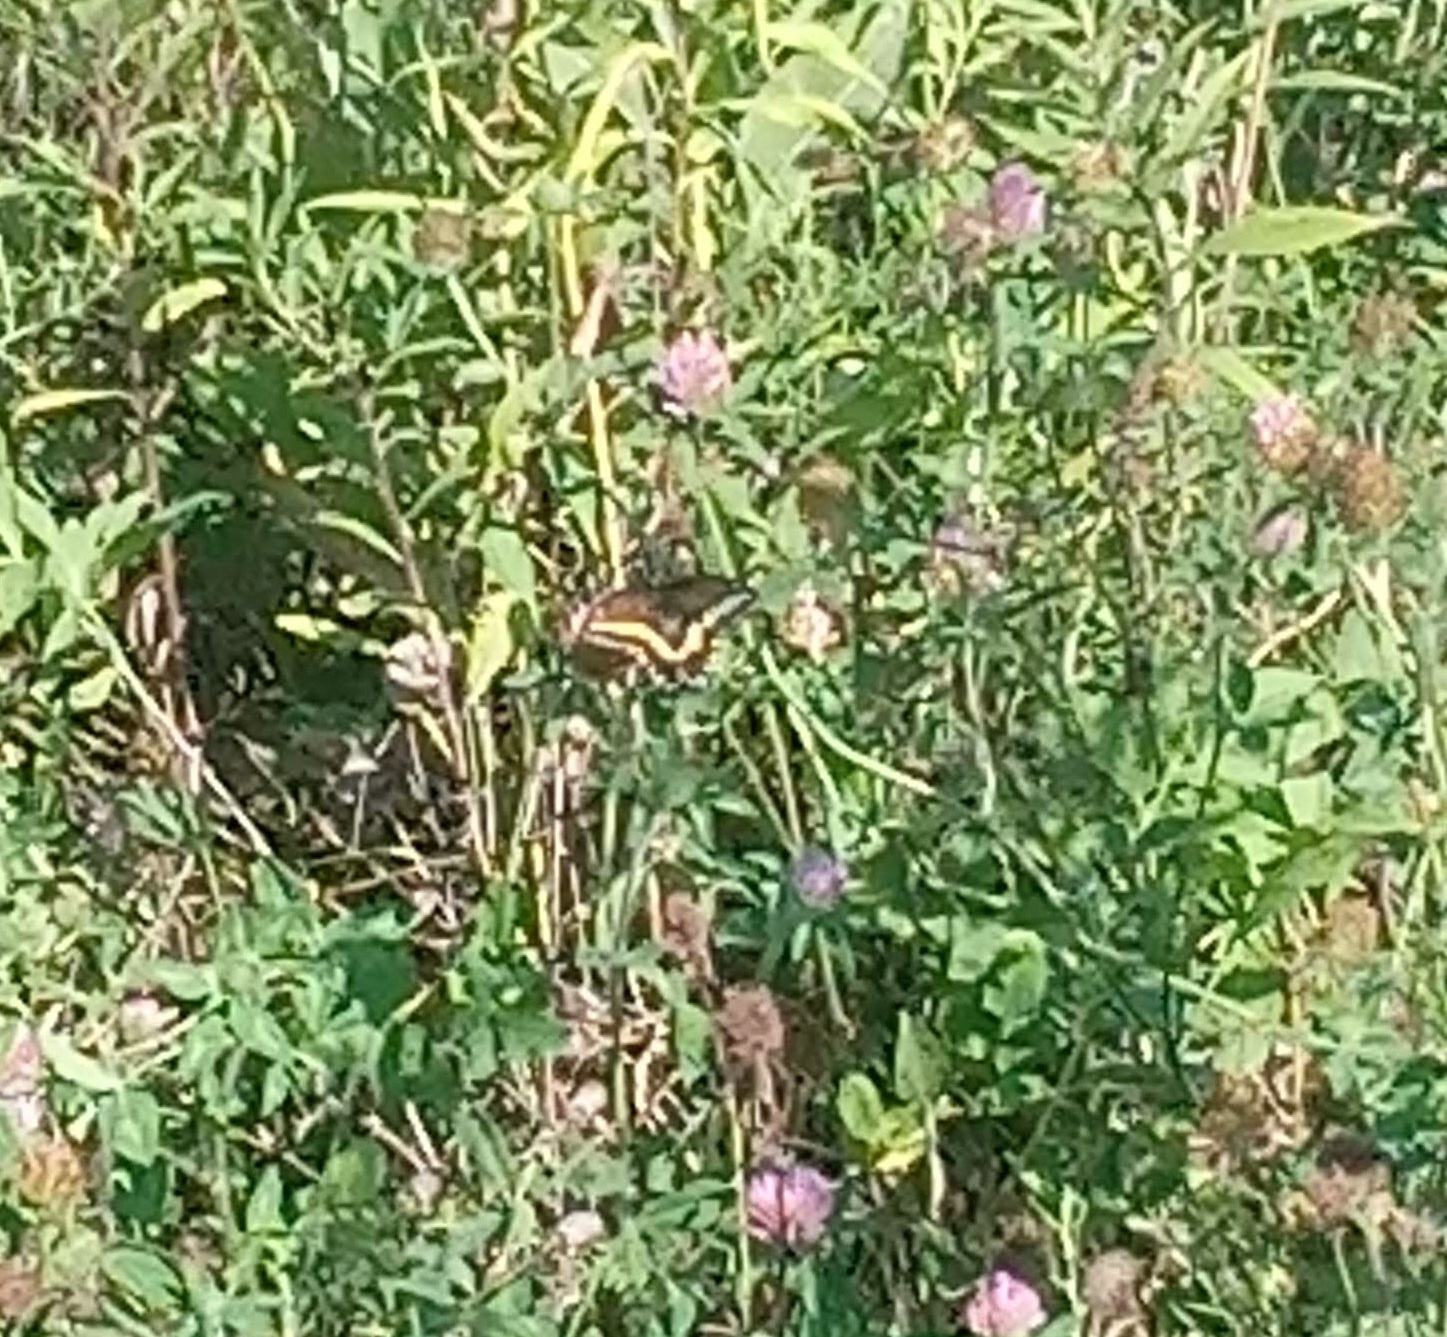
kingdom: Animalia
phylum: Arthropoda
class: Insecta
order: Lepidoptera
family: Papilionidae
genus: Papilio
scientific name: Papilio polyxenes
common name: Black swallowtail
